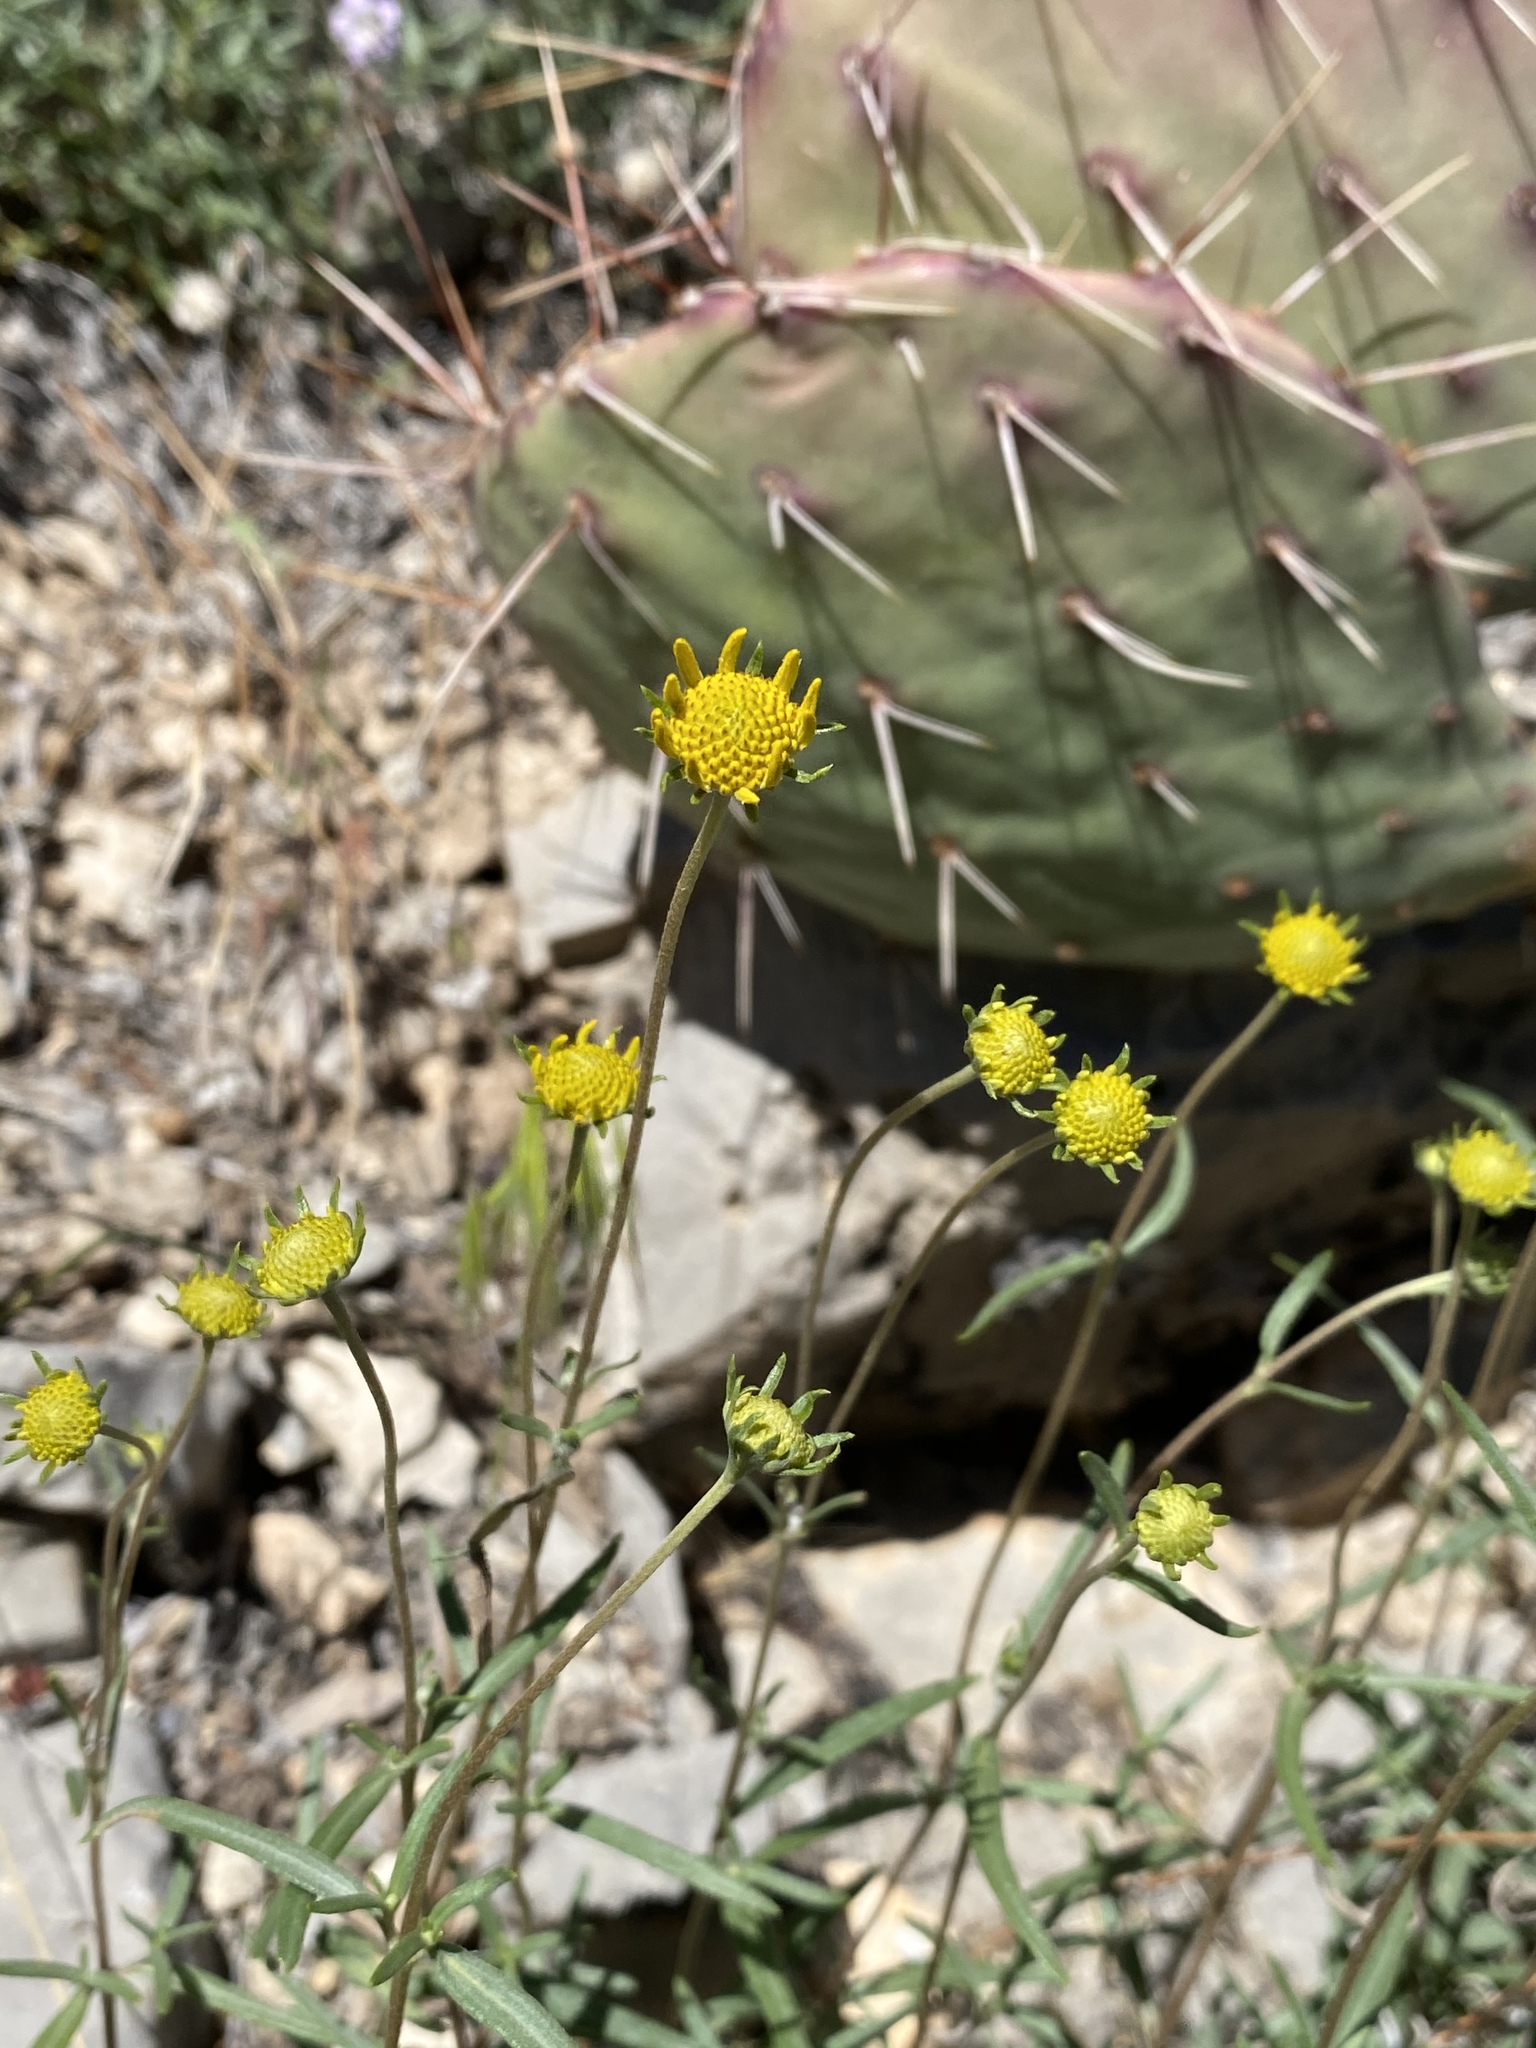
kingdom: Plantae
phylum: Tracheophyta
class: Magnoliopsida
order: Asterales
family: Asteraceae
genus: Heliomeris
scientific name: Heliomeris multiflora
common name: Showy goldeneye
